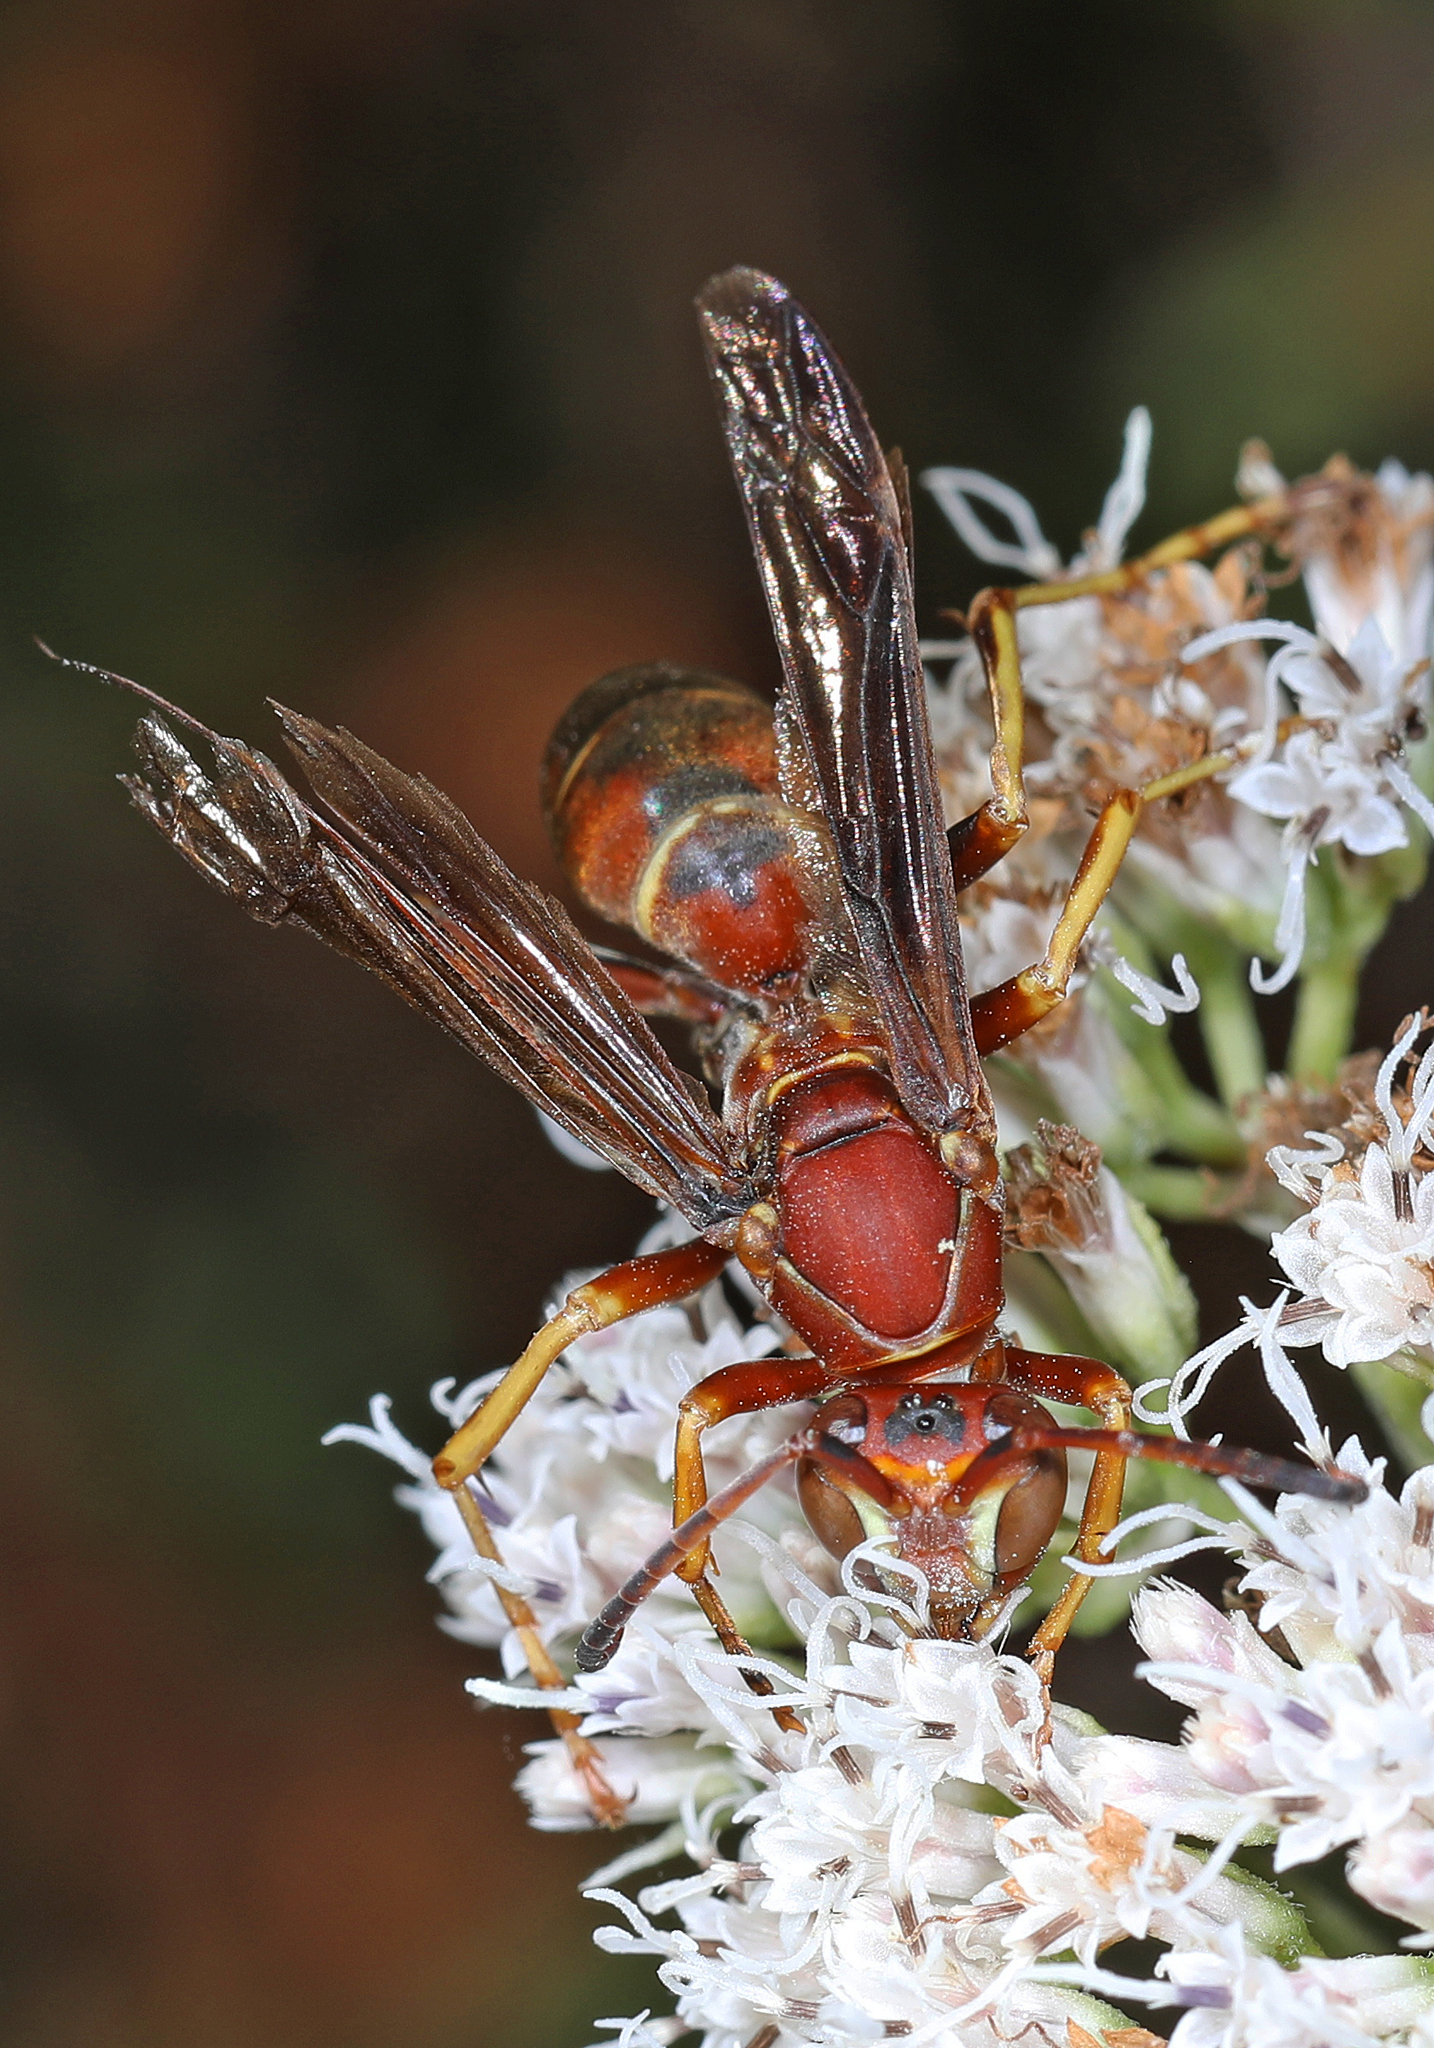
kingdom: Animalia
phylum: Arthropoda
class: Insecta
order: Hymenoptera
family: Eumenidae
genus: Polistes
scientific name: Polistes fuscatus
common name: Dark paper wasp
